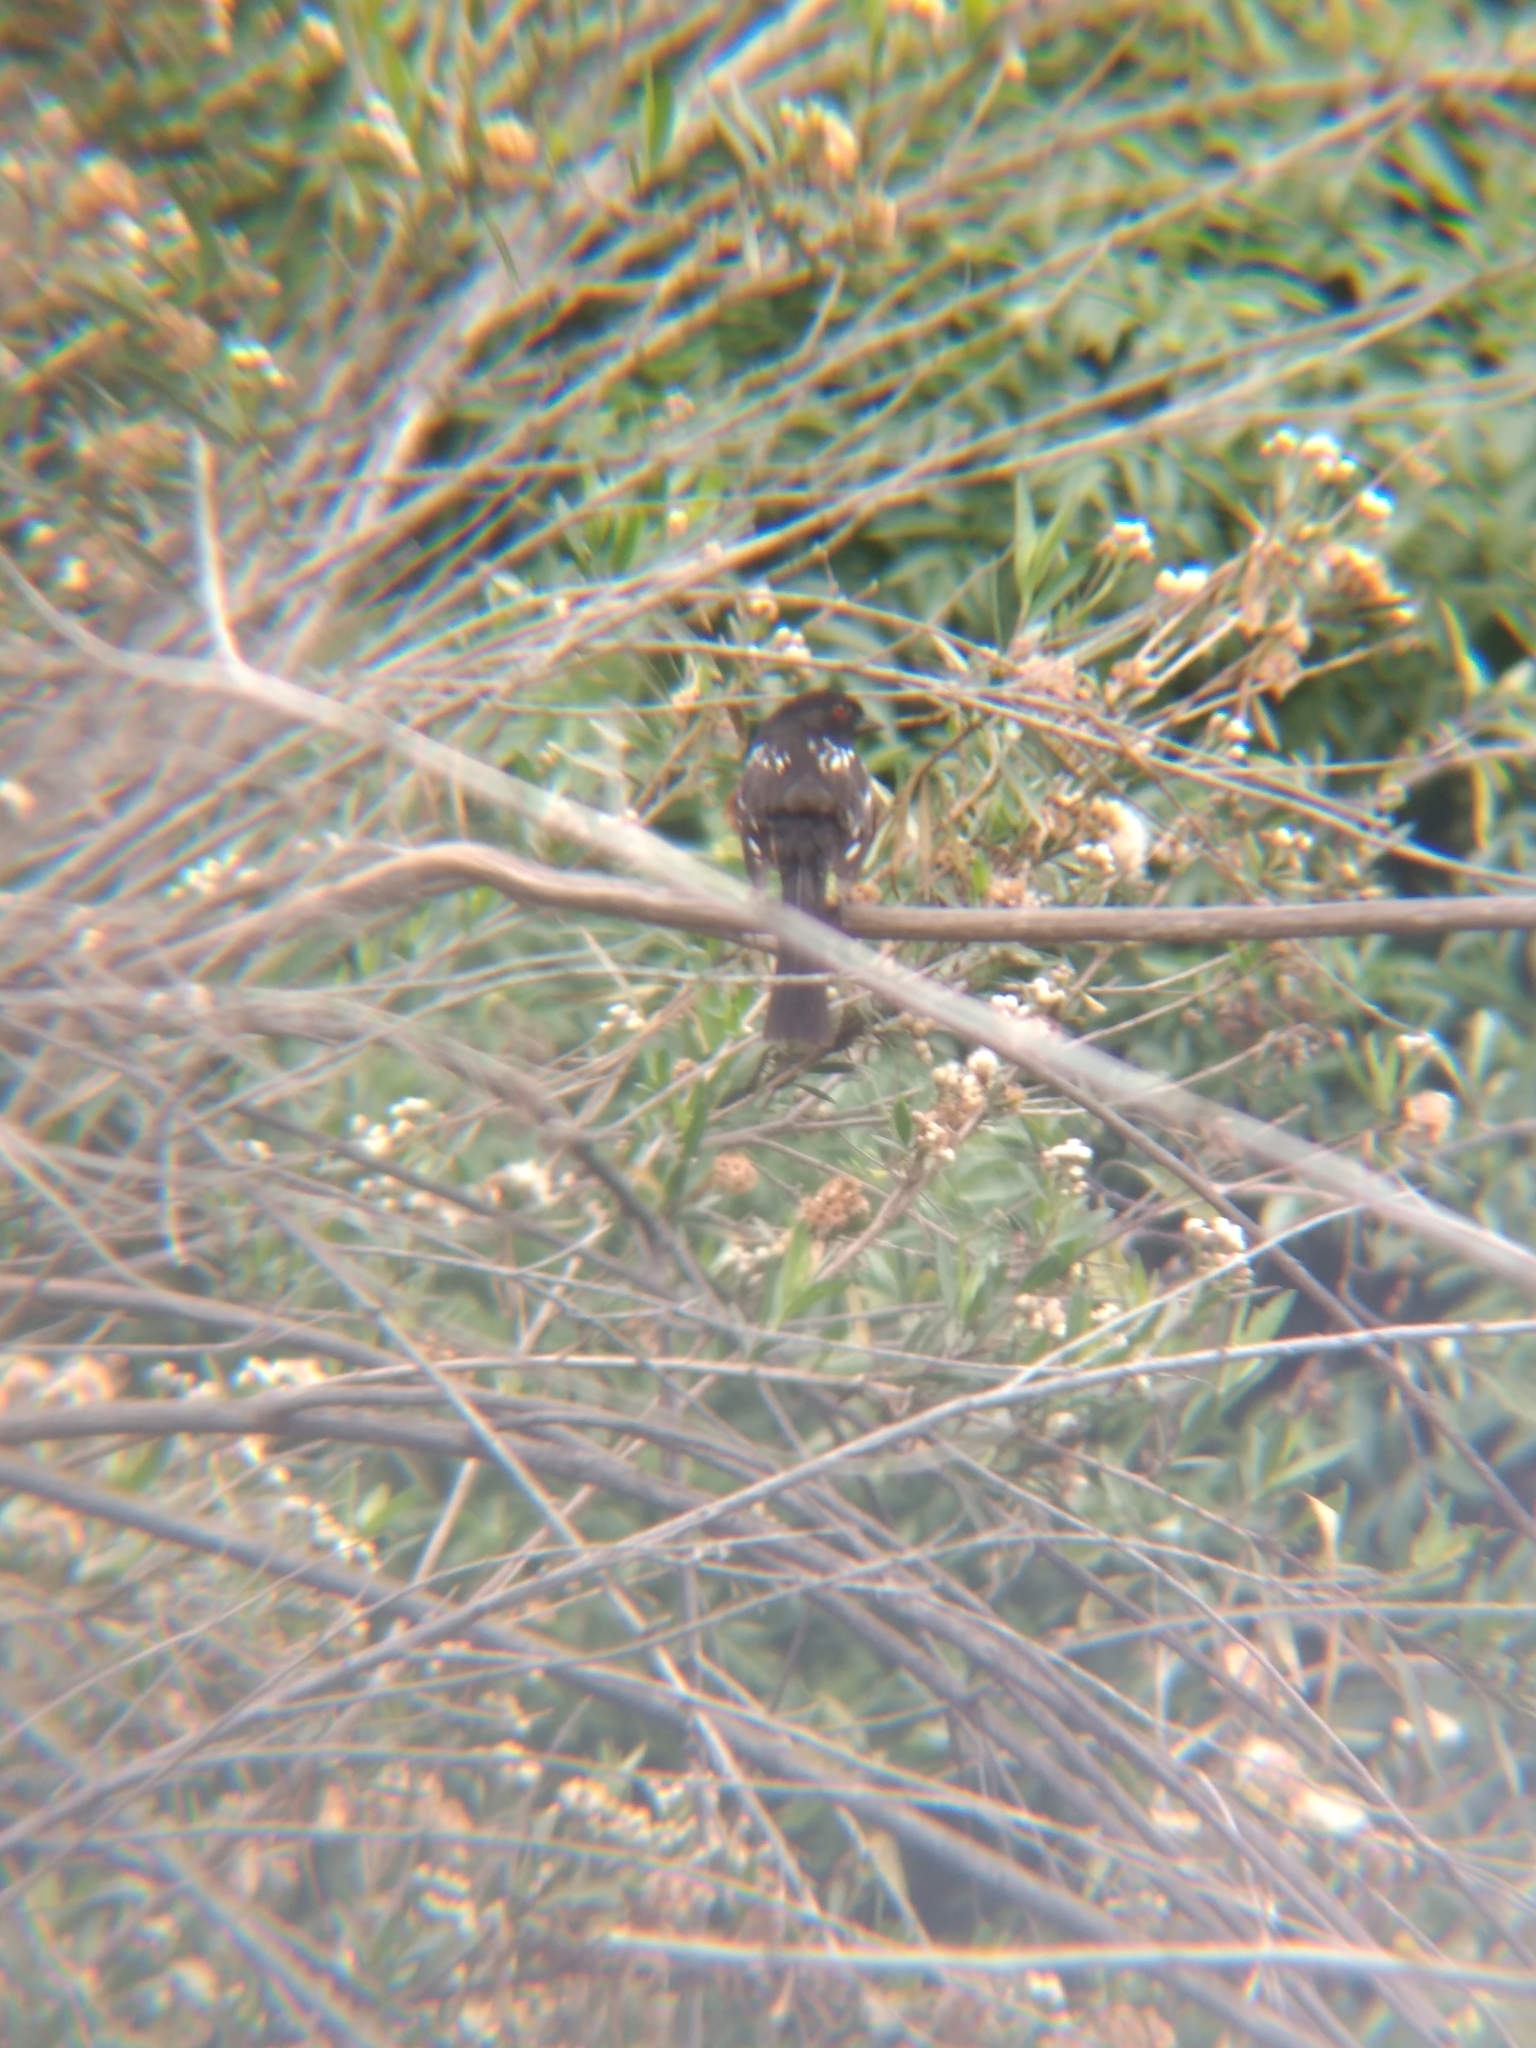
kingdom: Animalia
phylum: Chordata
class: Aves
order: Passeriformes
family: Passerellidae
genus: Pipilo
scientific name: Pipilo maculatus
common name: Spotted towhee
